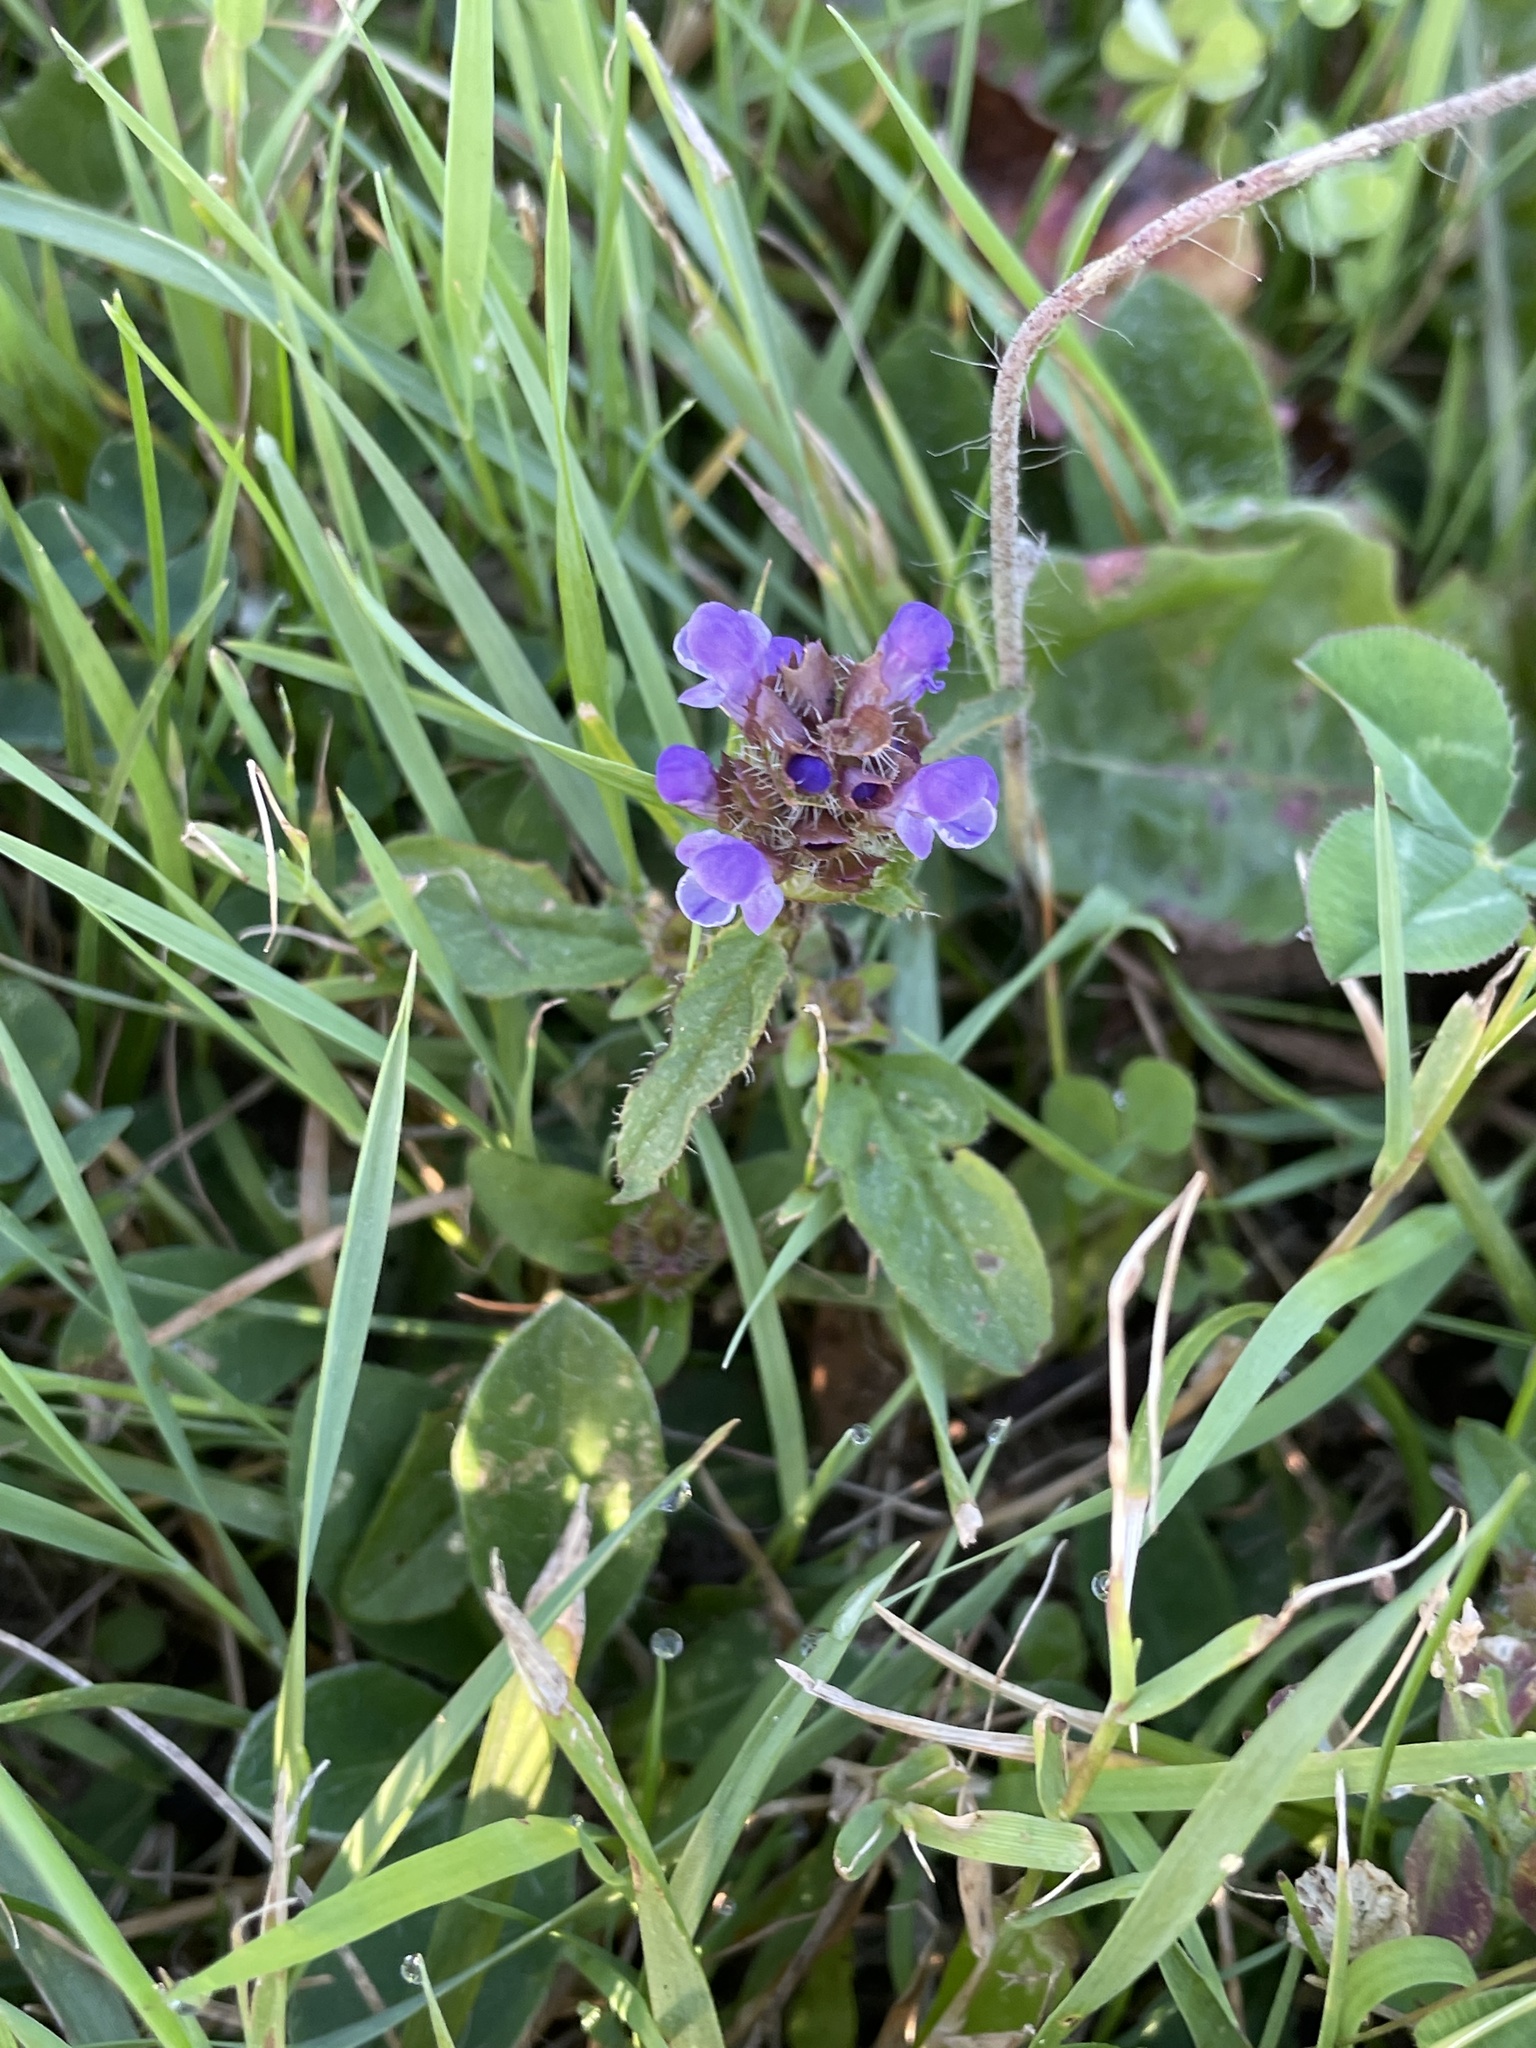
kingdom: Plantae
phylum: Tracheophyta
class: Magnoliopsida
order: Lamiales
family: Lamiaceae
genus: Prunella
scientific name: Prunella vulgaris
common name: Heal-all
